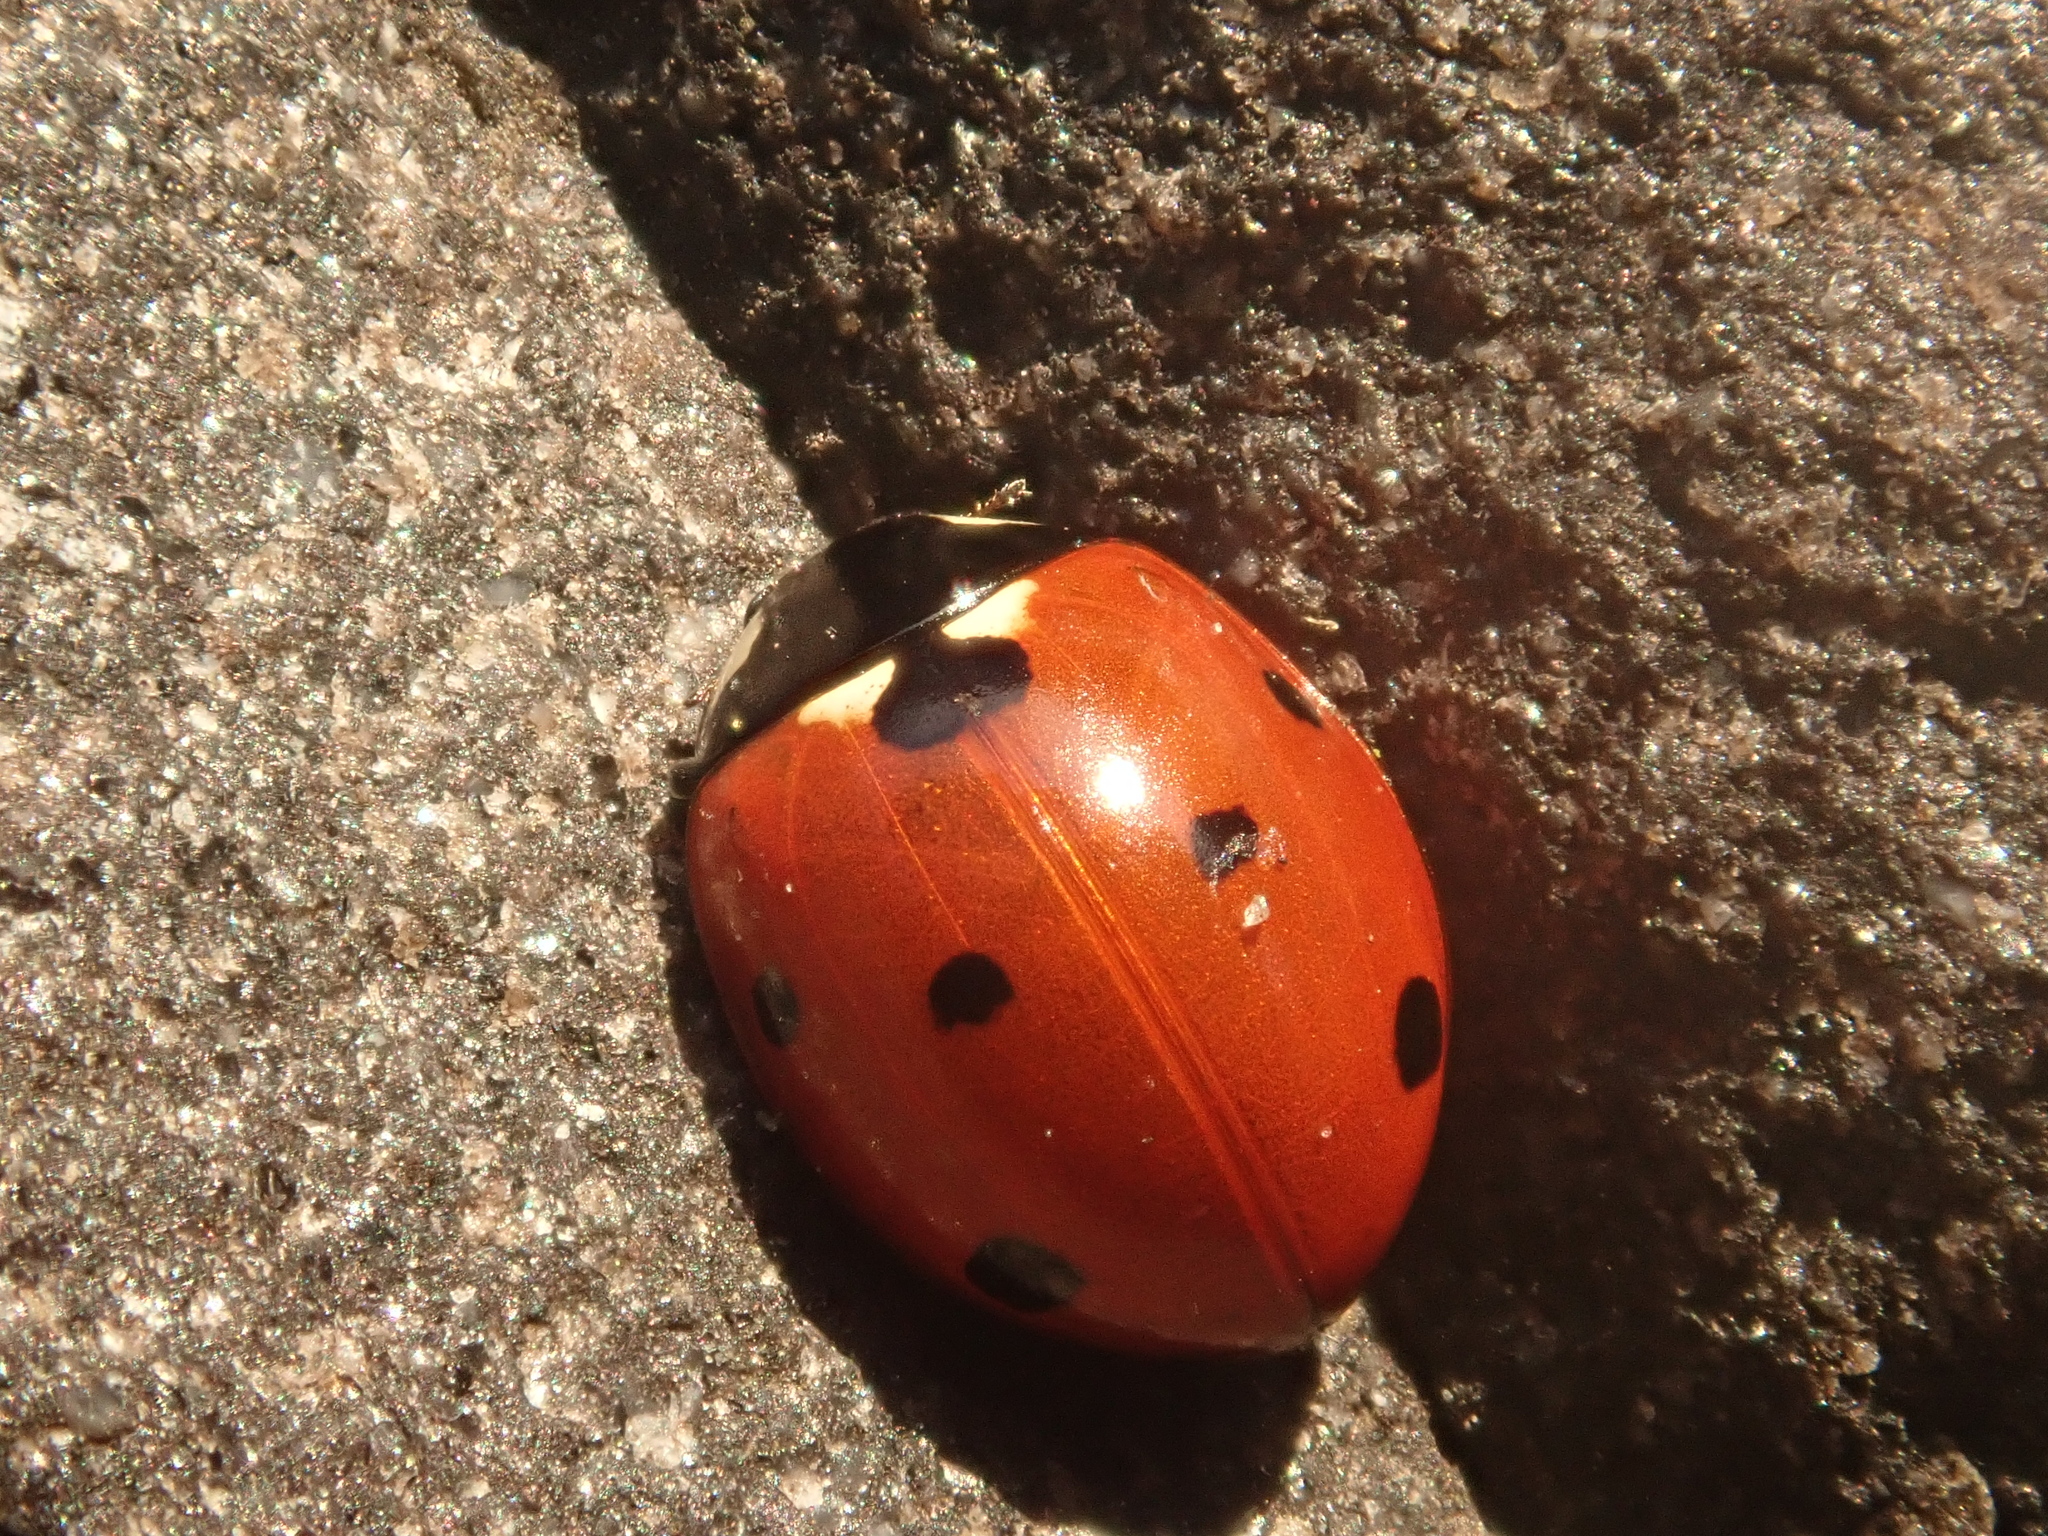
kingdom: Animalia
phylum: Arthropoda
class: Insecta
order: Coleoptera
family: Coccinellidae
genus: Coccinella
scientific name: Coccinella septempunctata
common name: Sevenspotted lady beetle
